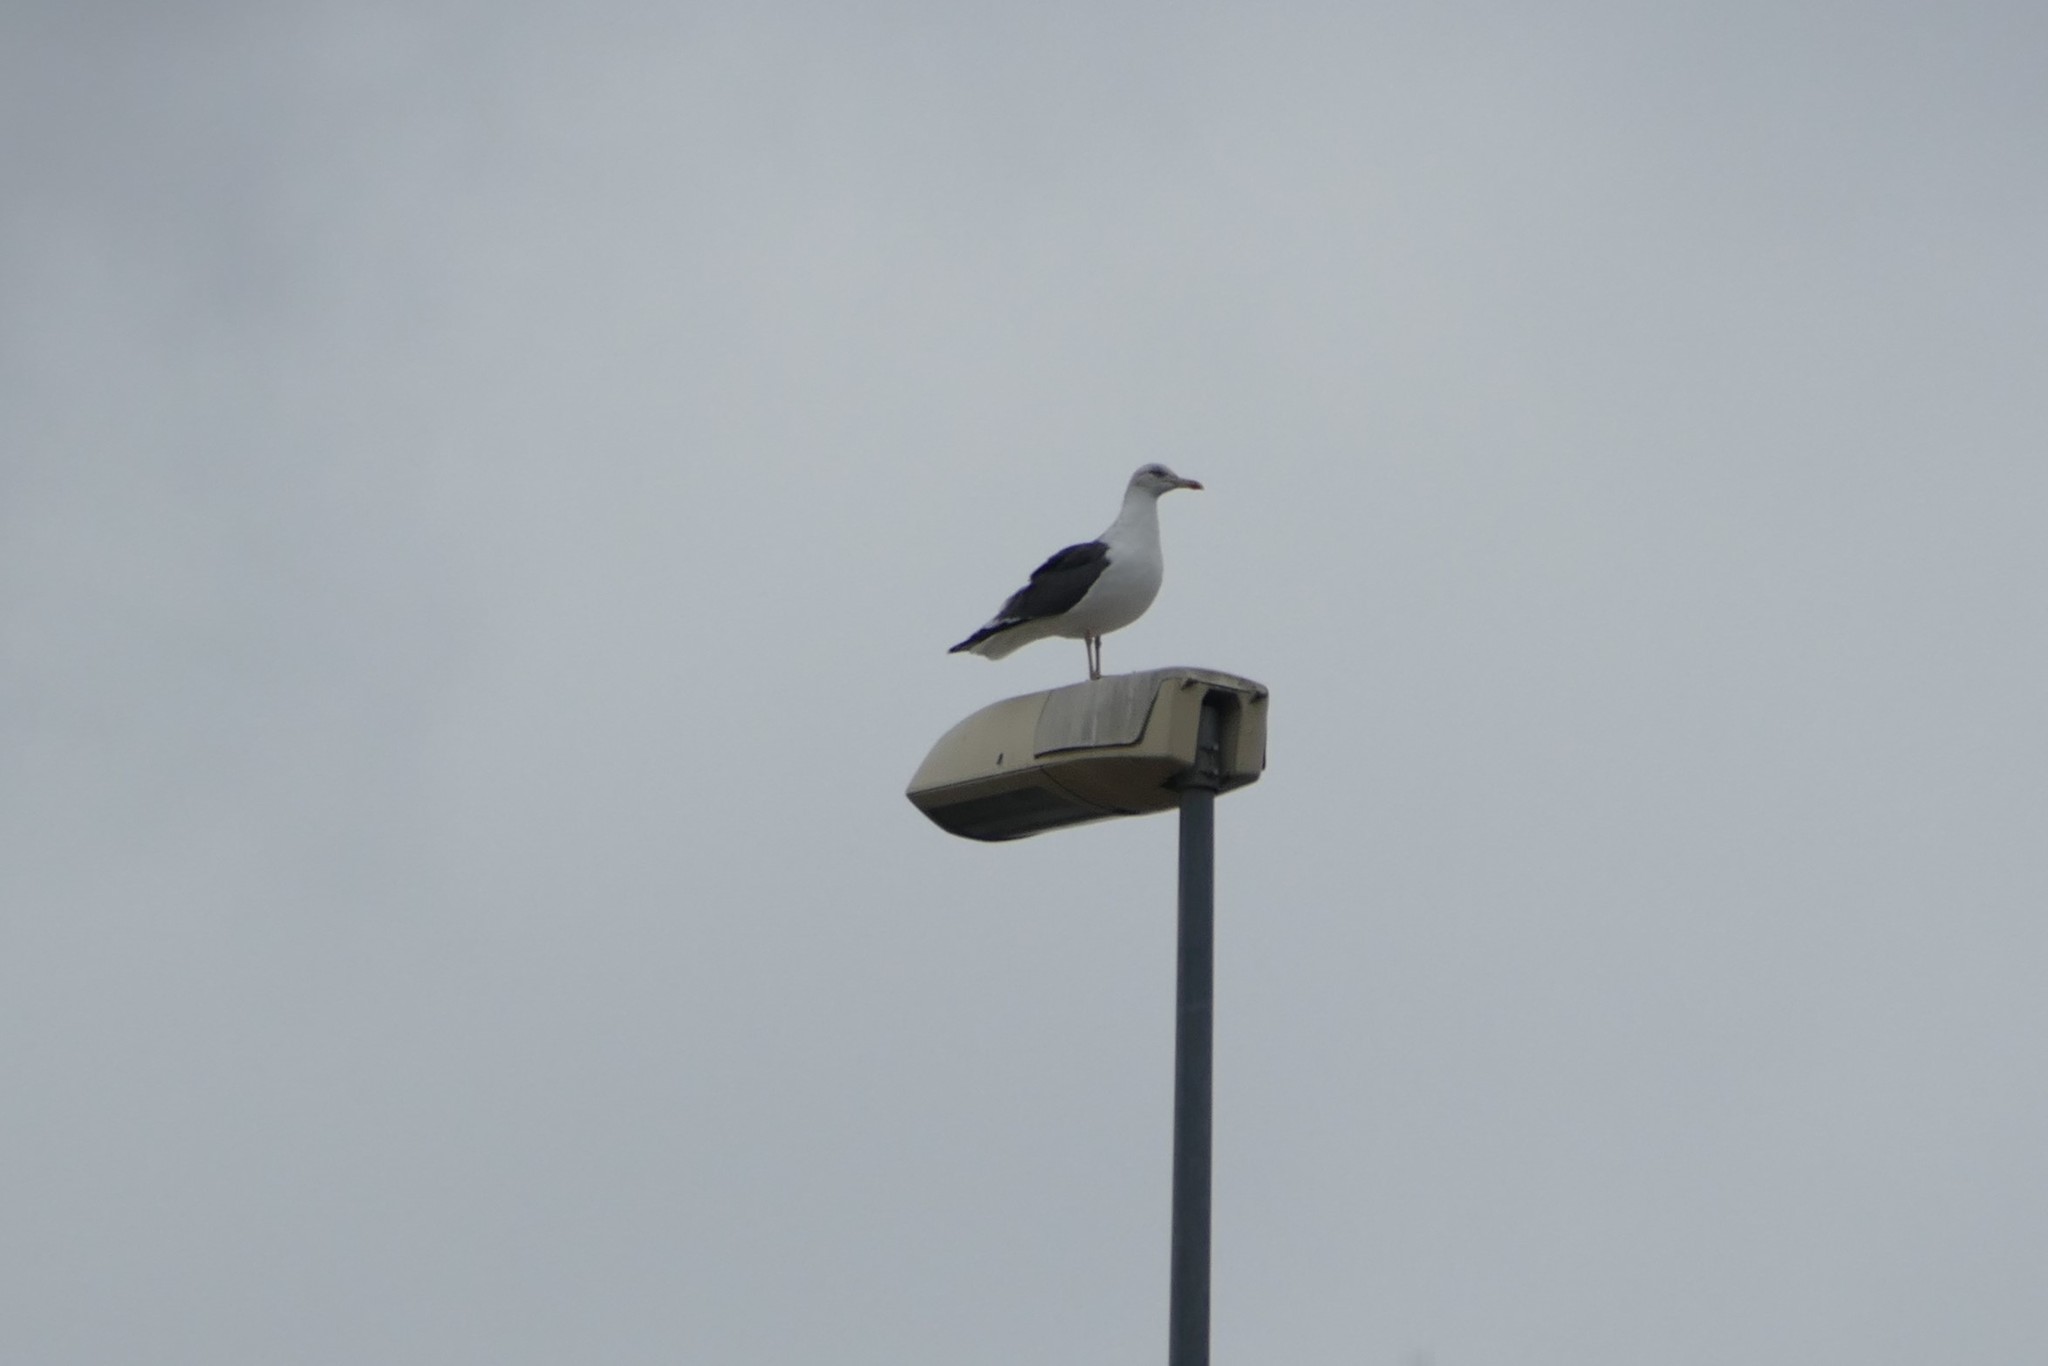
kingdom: Animalia
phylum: Chordata
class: Aves
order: Charadriiformes
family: Laridae
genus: Larus
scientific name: Larus fuscus
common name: Lesser black-backed gull
